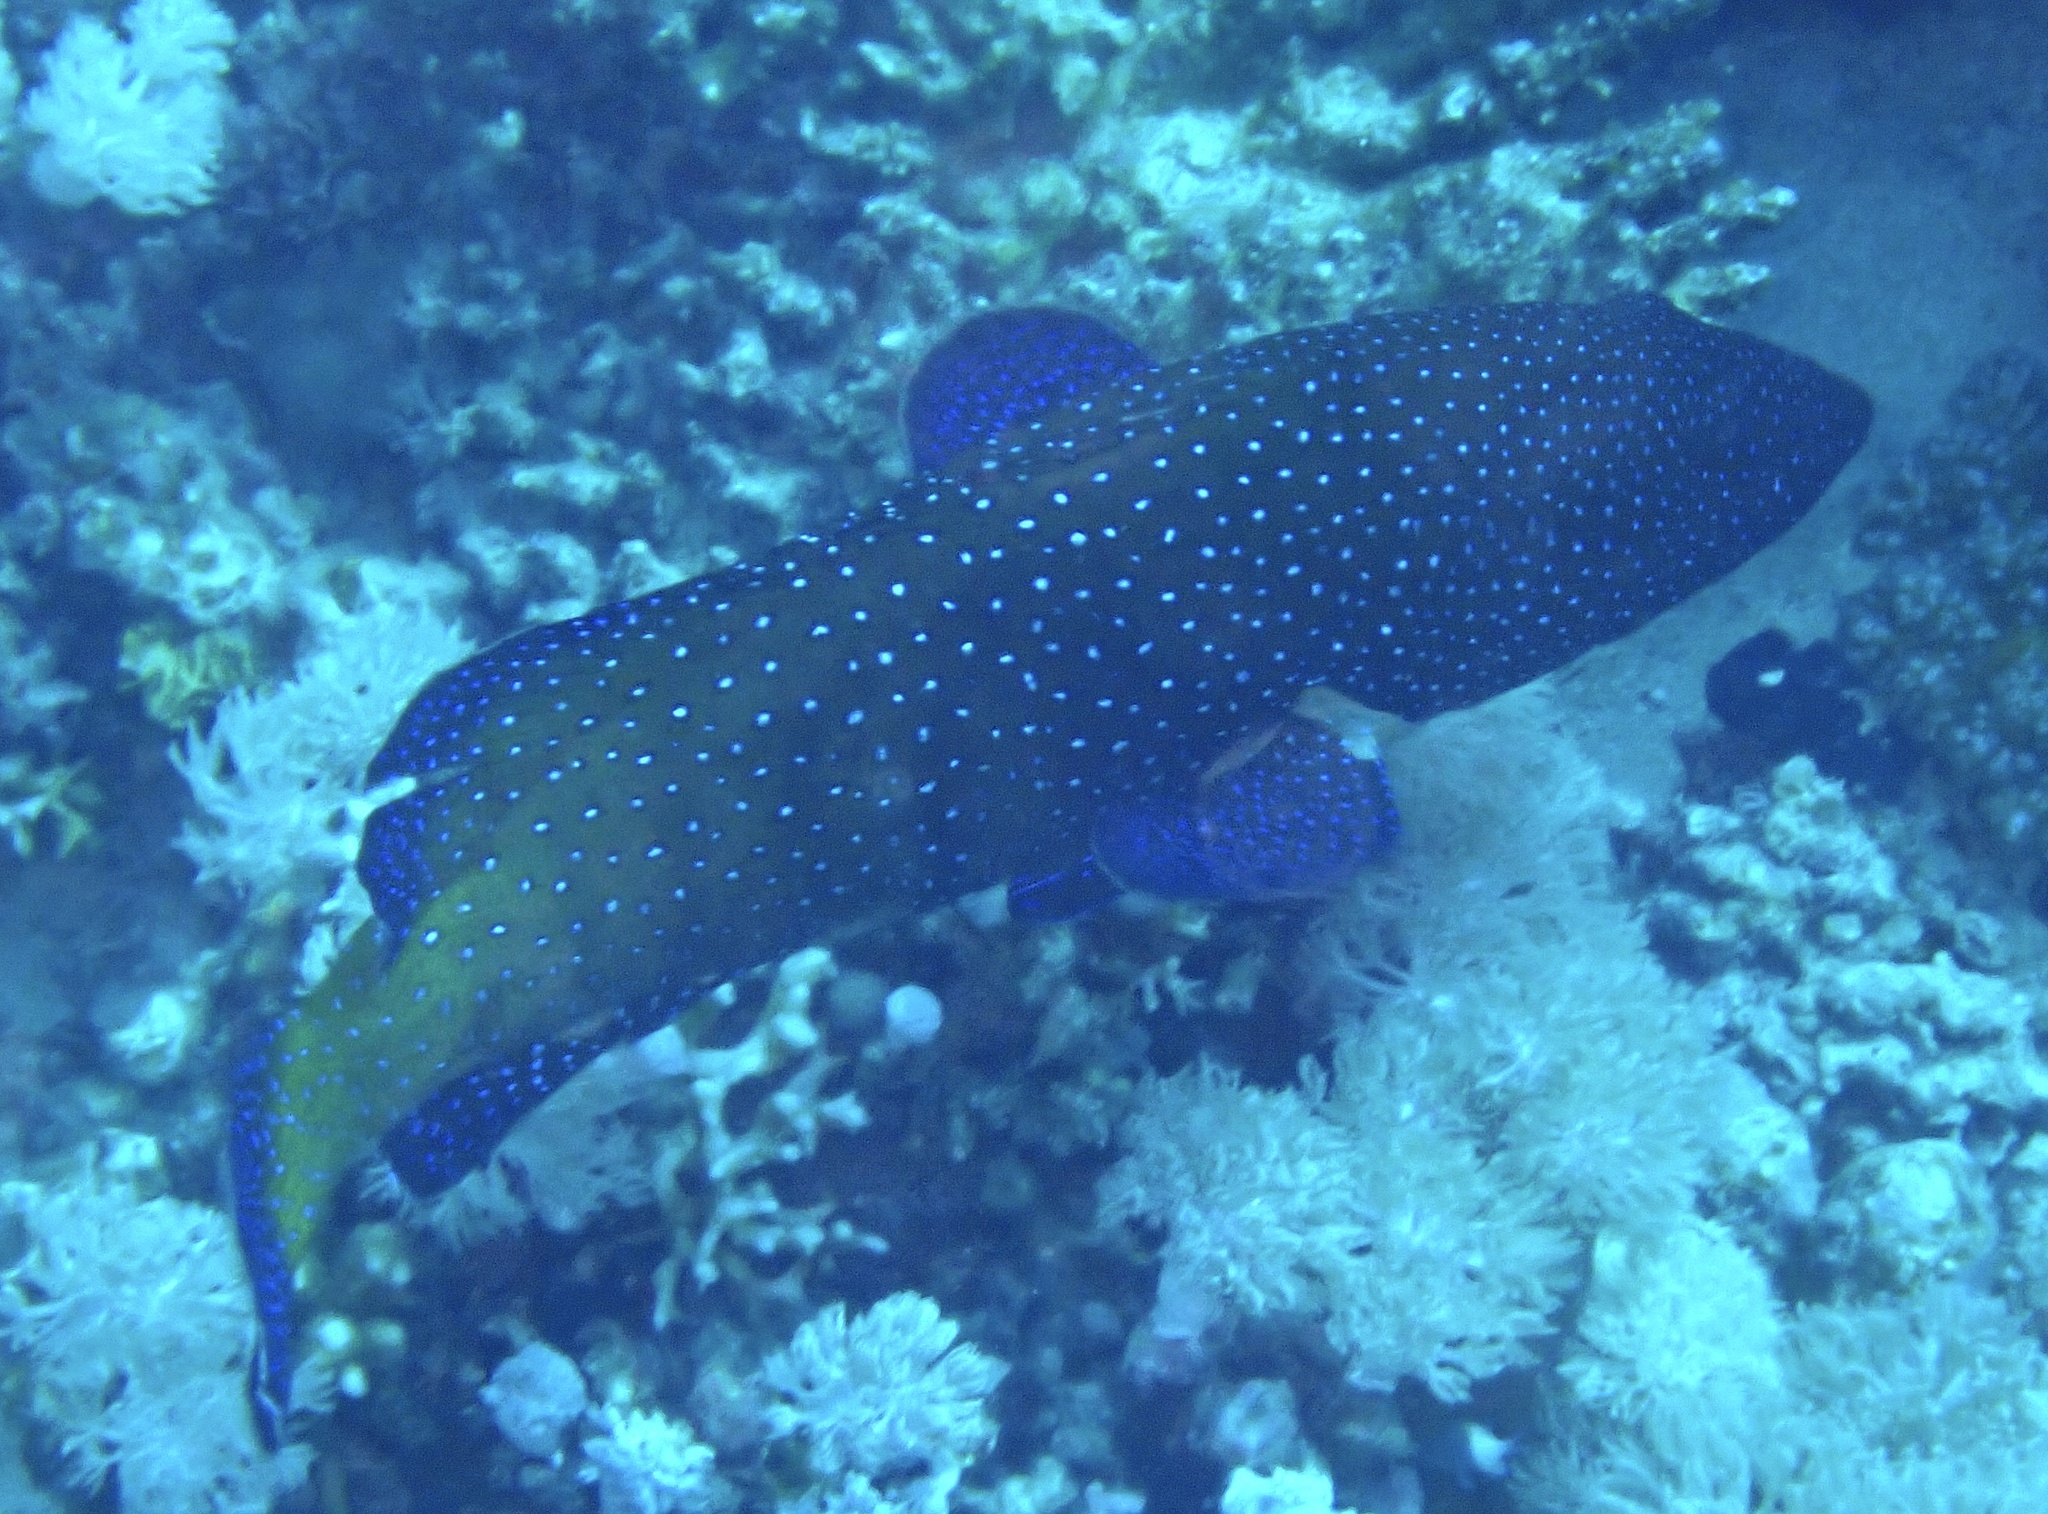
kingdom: Animalia
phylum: Chordata
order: Perciformes
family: Serranidae
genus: Cephalopholis
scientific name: Cephalopholis argus
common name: Peacock grouper
